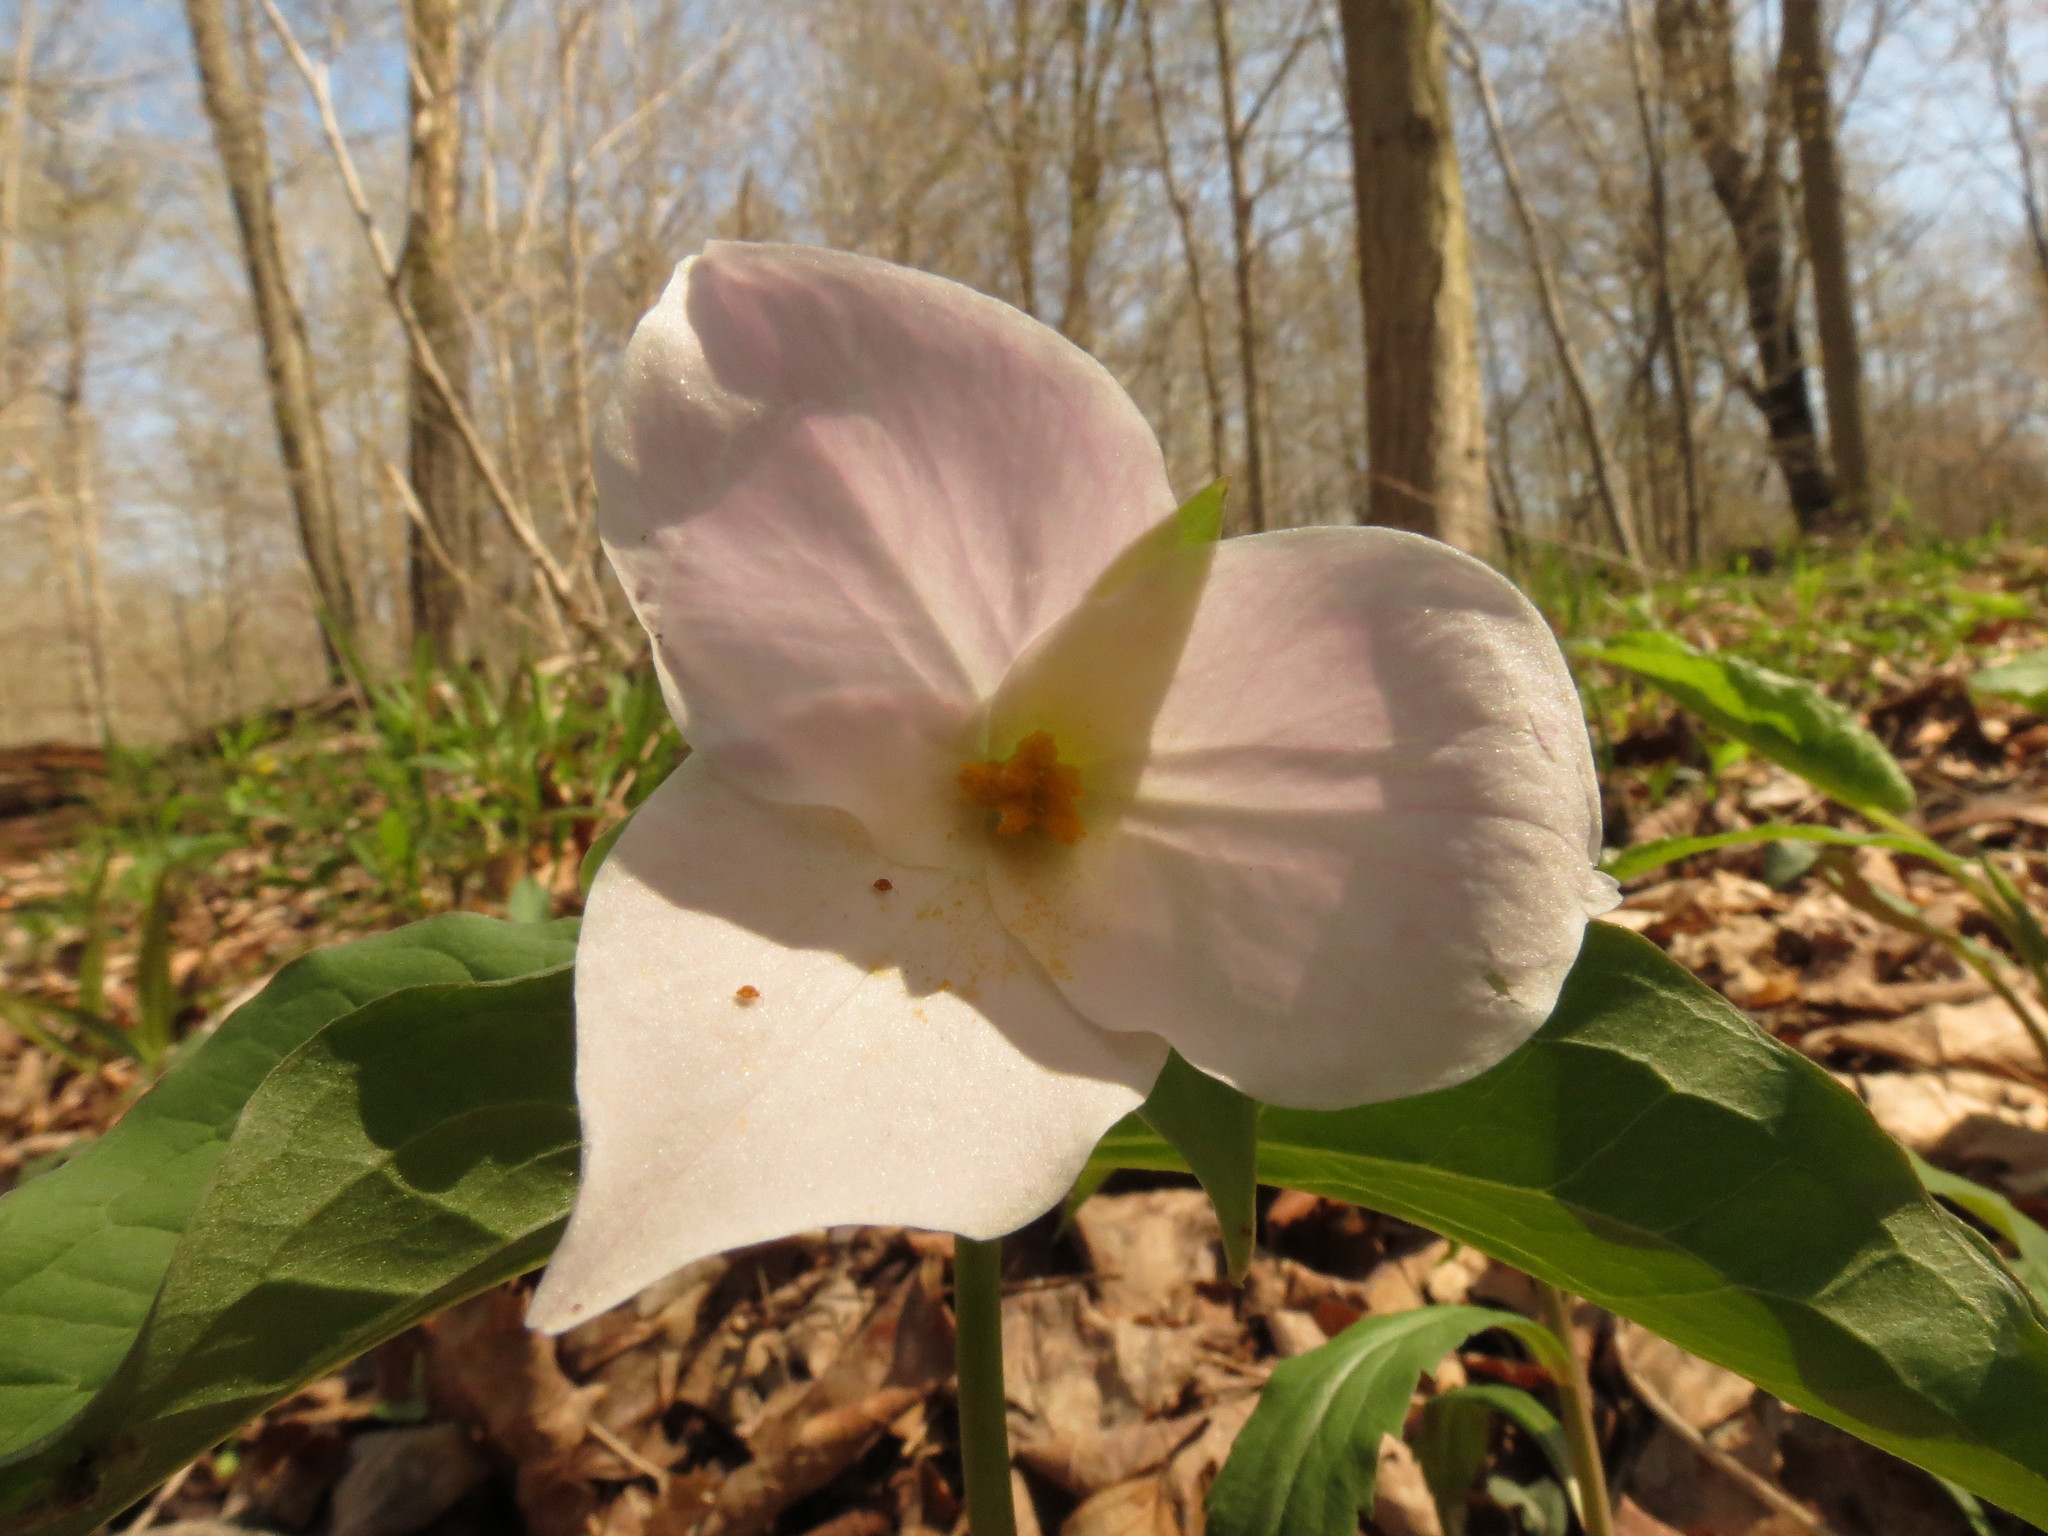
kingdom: Plantae
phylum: Tracheophyta
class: Liliopsida
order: Liliales
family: Melanthiaceae
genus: Trillium
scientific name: Trillium grandiflorum
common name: Great white trillium
